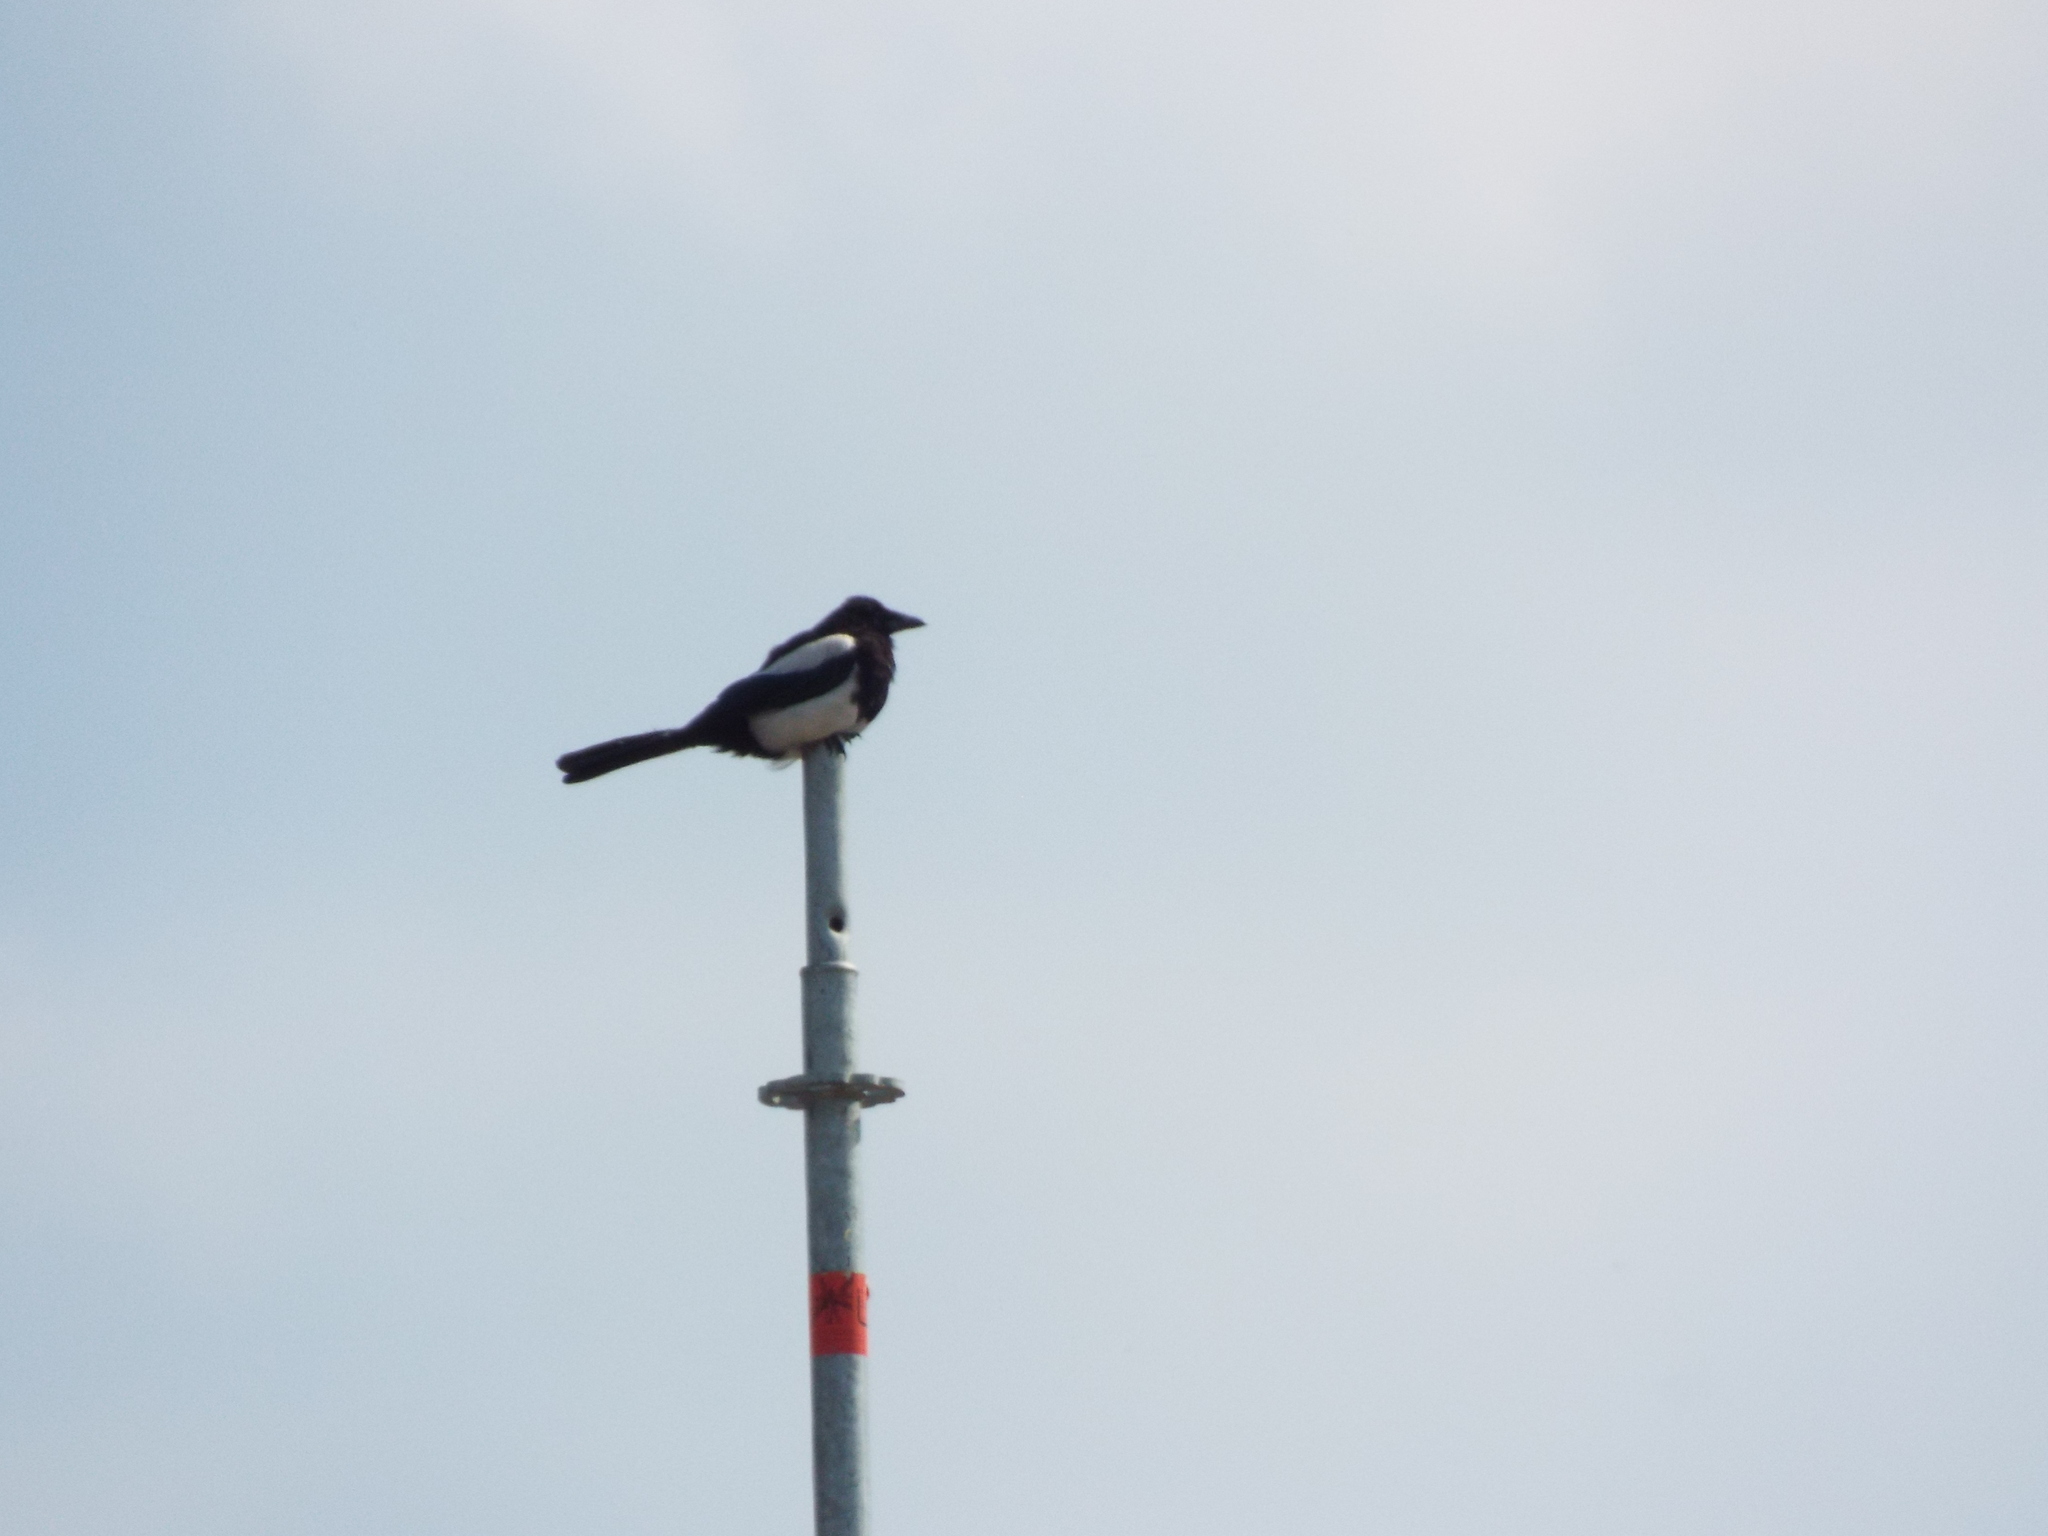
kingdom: Animalia
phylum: Chordata
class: Aves
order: Passeriformes
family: Corvidae
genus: Pica
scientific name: Pica pica
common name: Eurasian magpie
